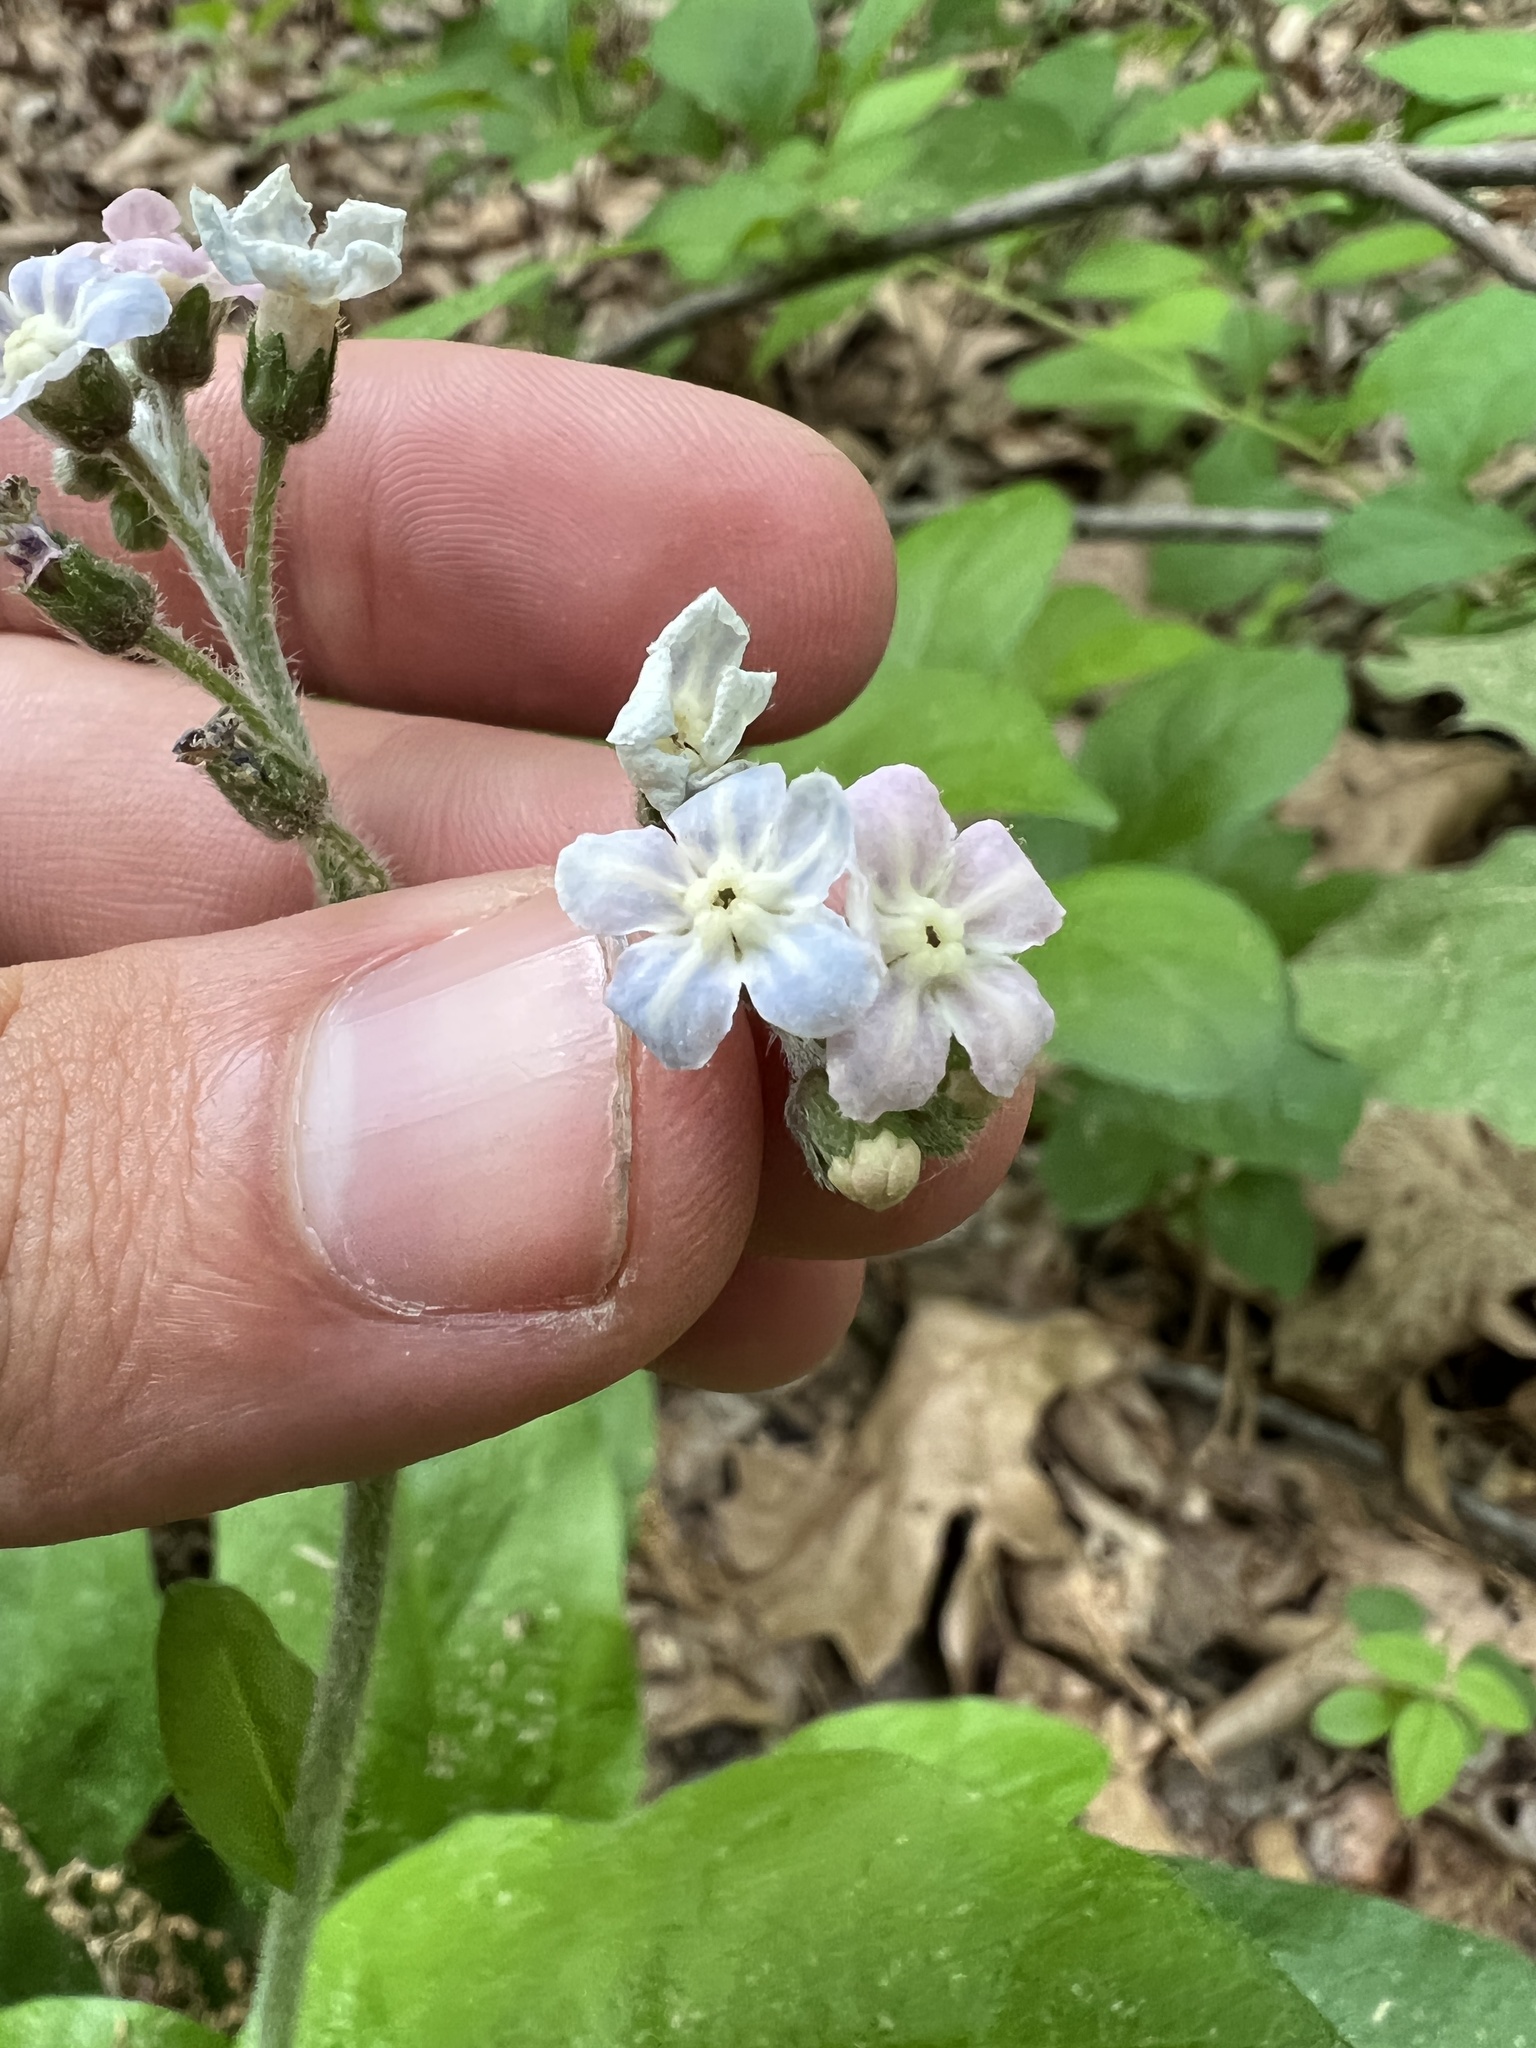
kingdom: Plantae
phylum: Tracheophyta
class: Magnoliopsida
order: Boraginales
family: Boraginaceae
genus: Andersonglossum
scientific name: Andersonglossum virginianum
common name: Wild comfrey
